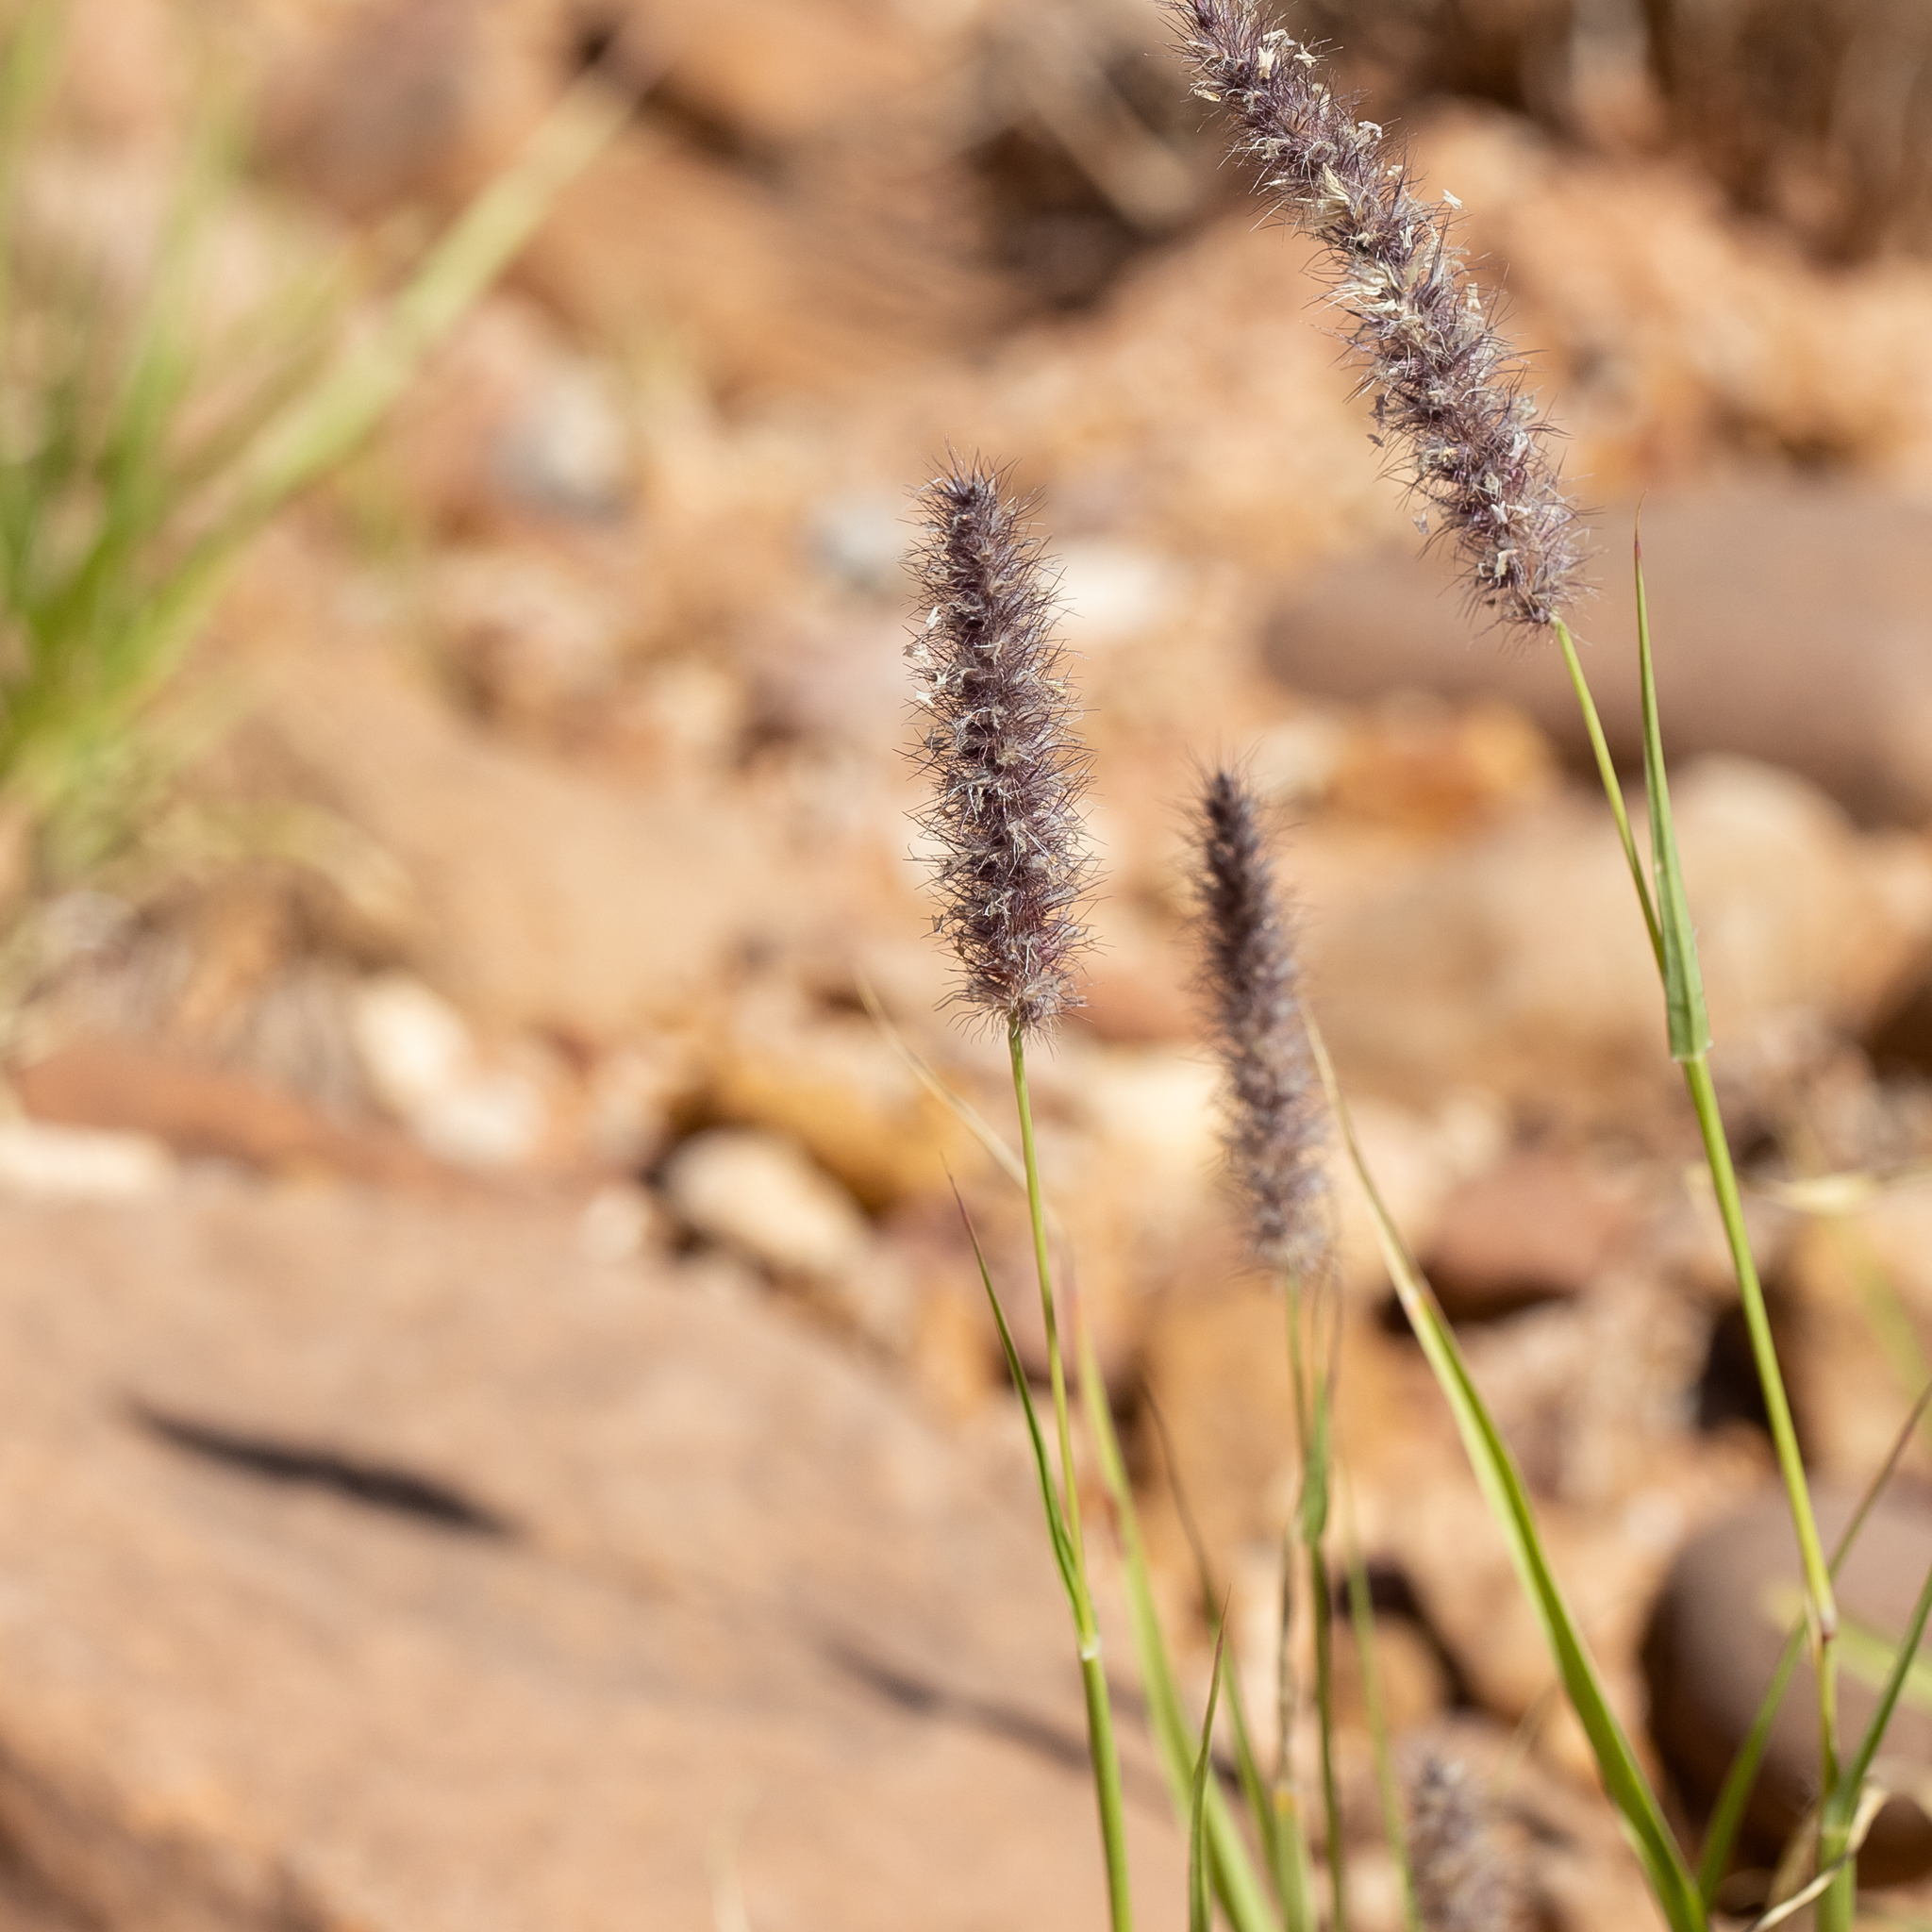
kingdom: Plantae
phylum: Tracheophyta
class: Liliopsida
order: Poales
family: Poaceae
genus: Cenchrus
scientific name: Cenchrus ciliaris
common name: Buffelgrass
